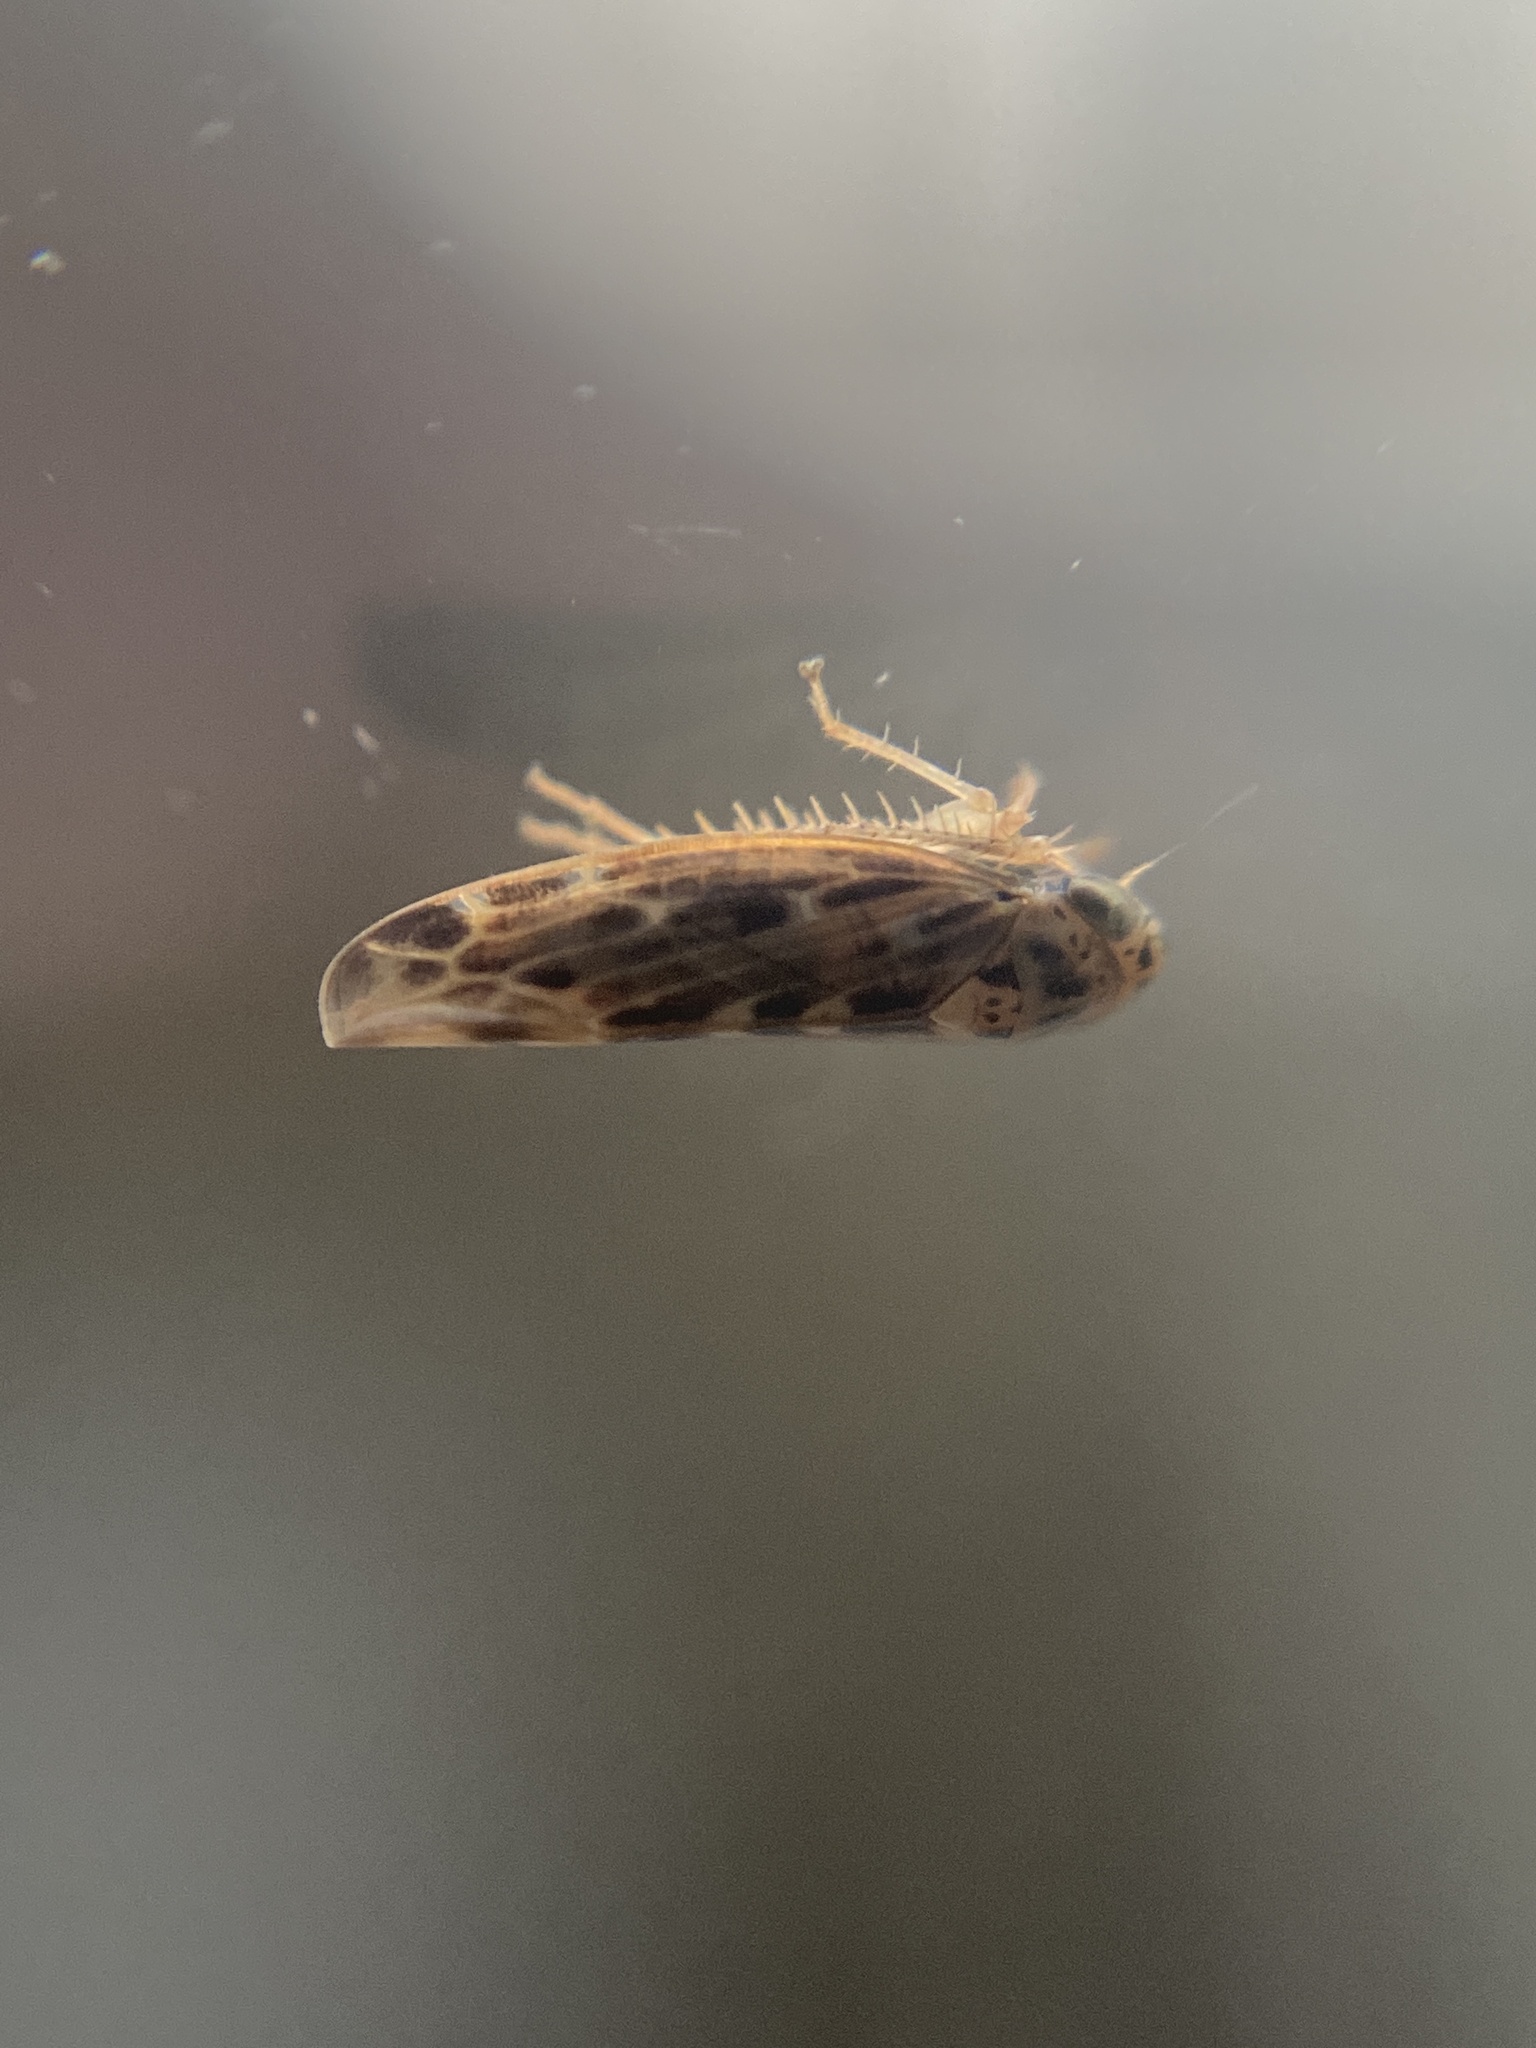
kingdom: Animalia
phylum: Arthropoda
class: Insecta
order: Hemiptera
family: Cicadellidae
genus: Lamprotettix
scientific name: Lamprotettix nitidulus
